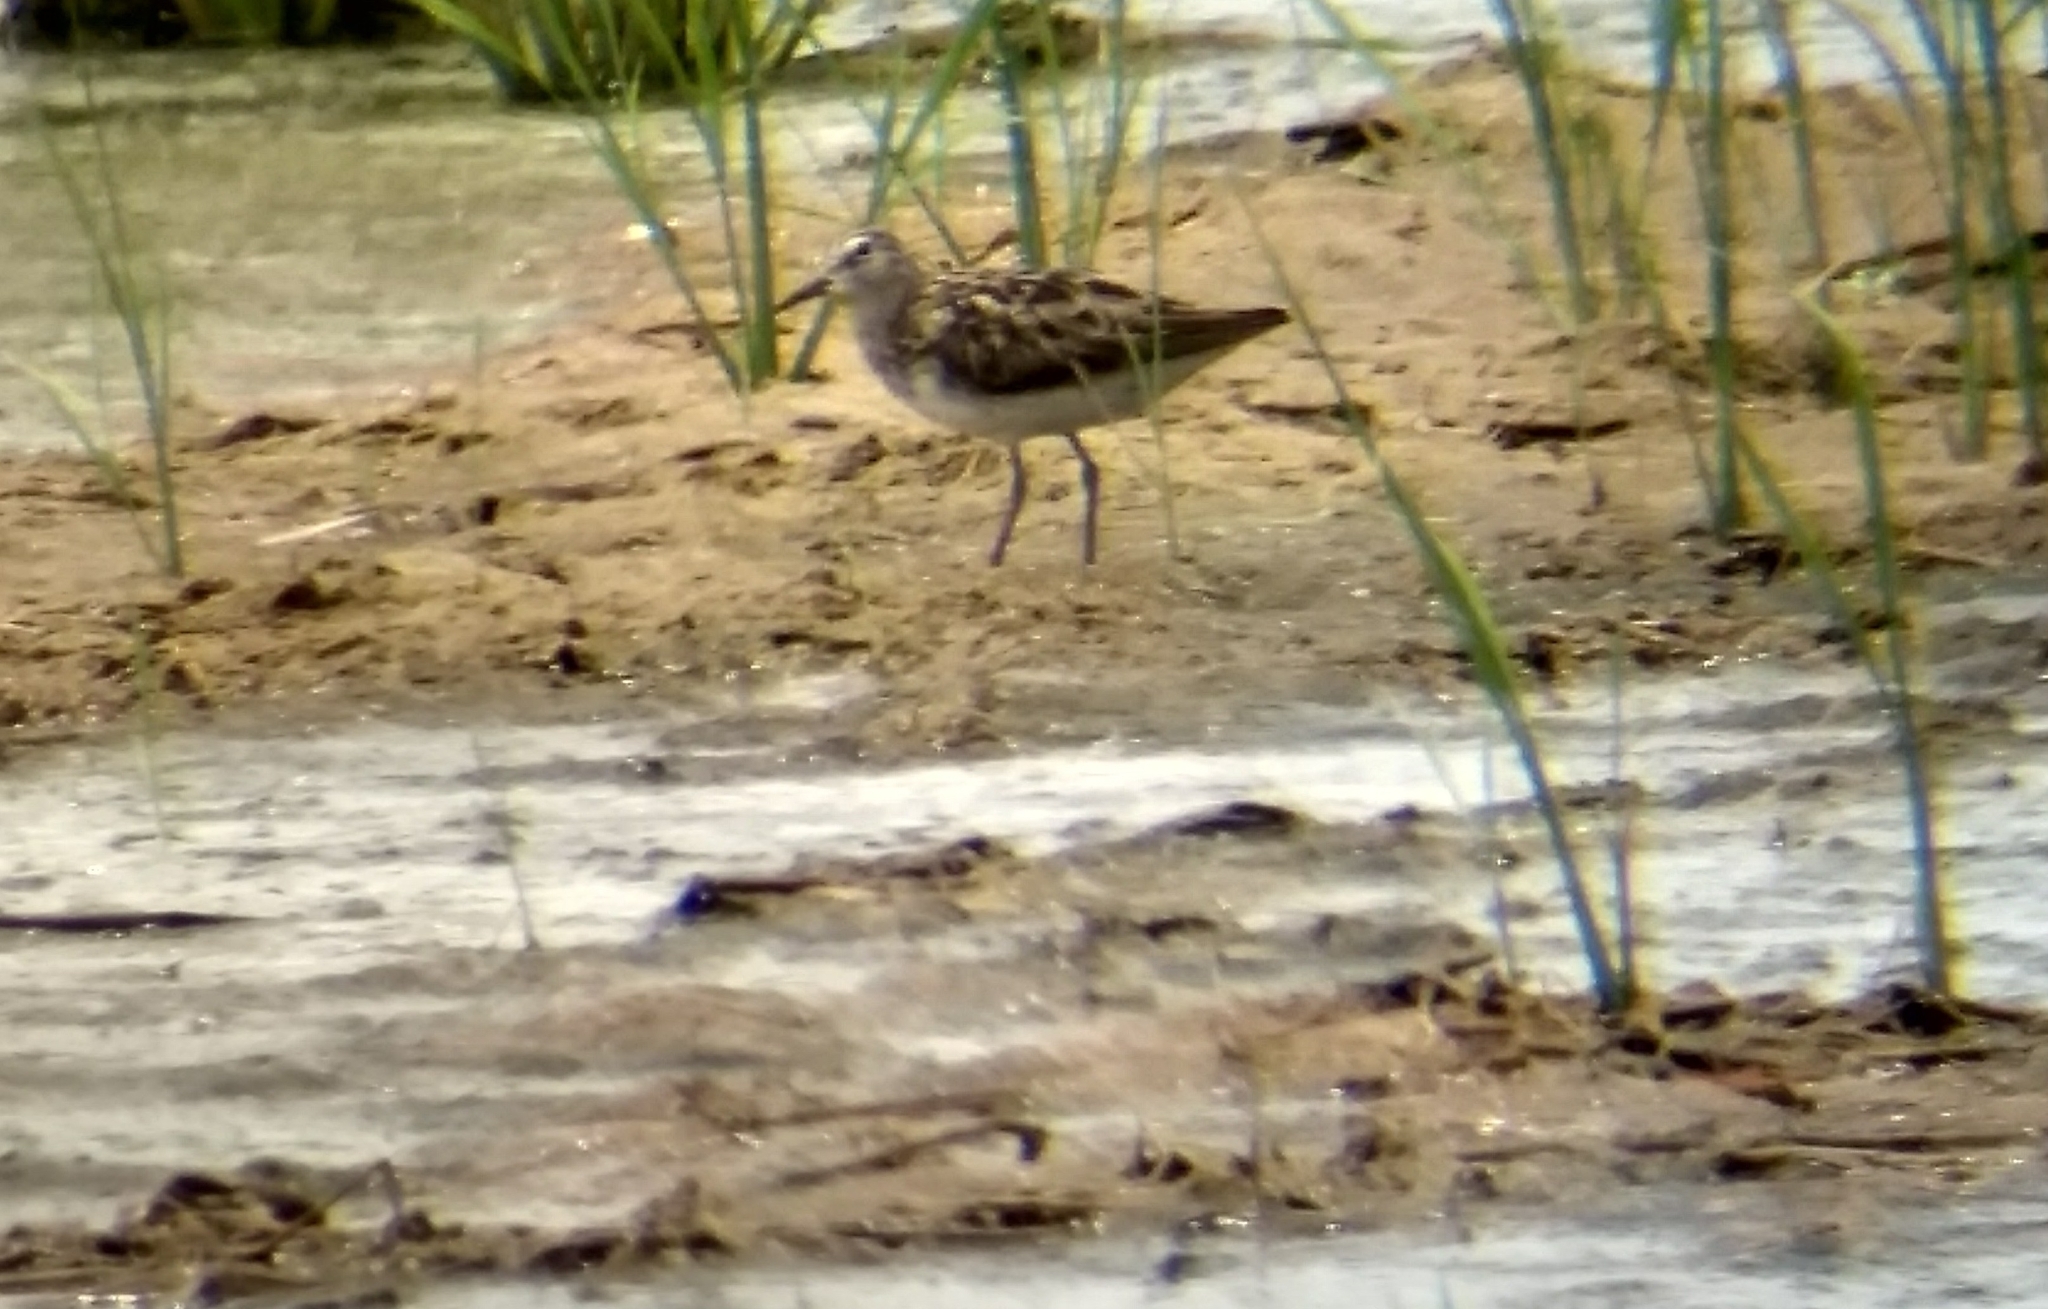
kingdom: Animalia
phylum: Chordata
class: Aves
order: Charadriiformes
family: Scolopacidae
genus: Calidris
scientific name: Calidris subminuta
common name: Long-toed stint
